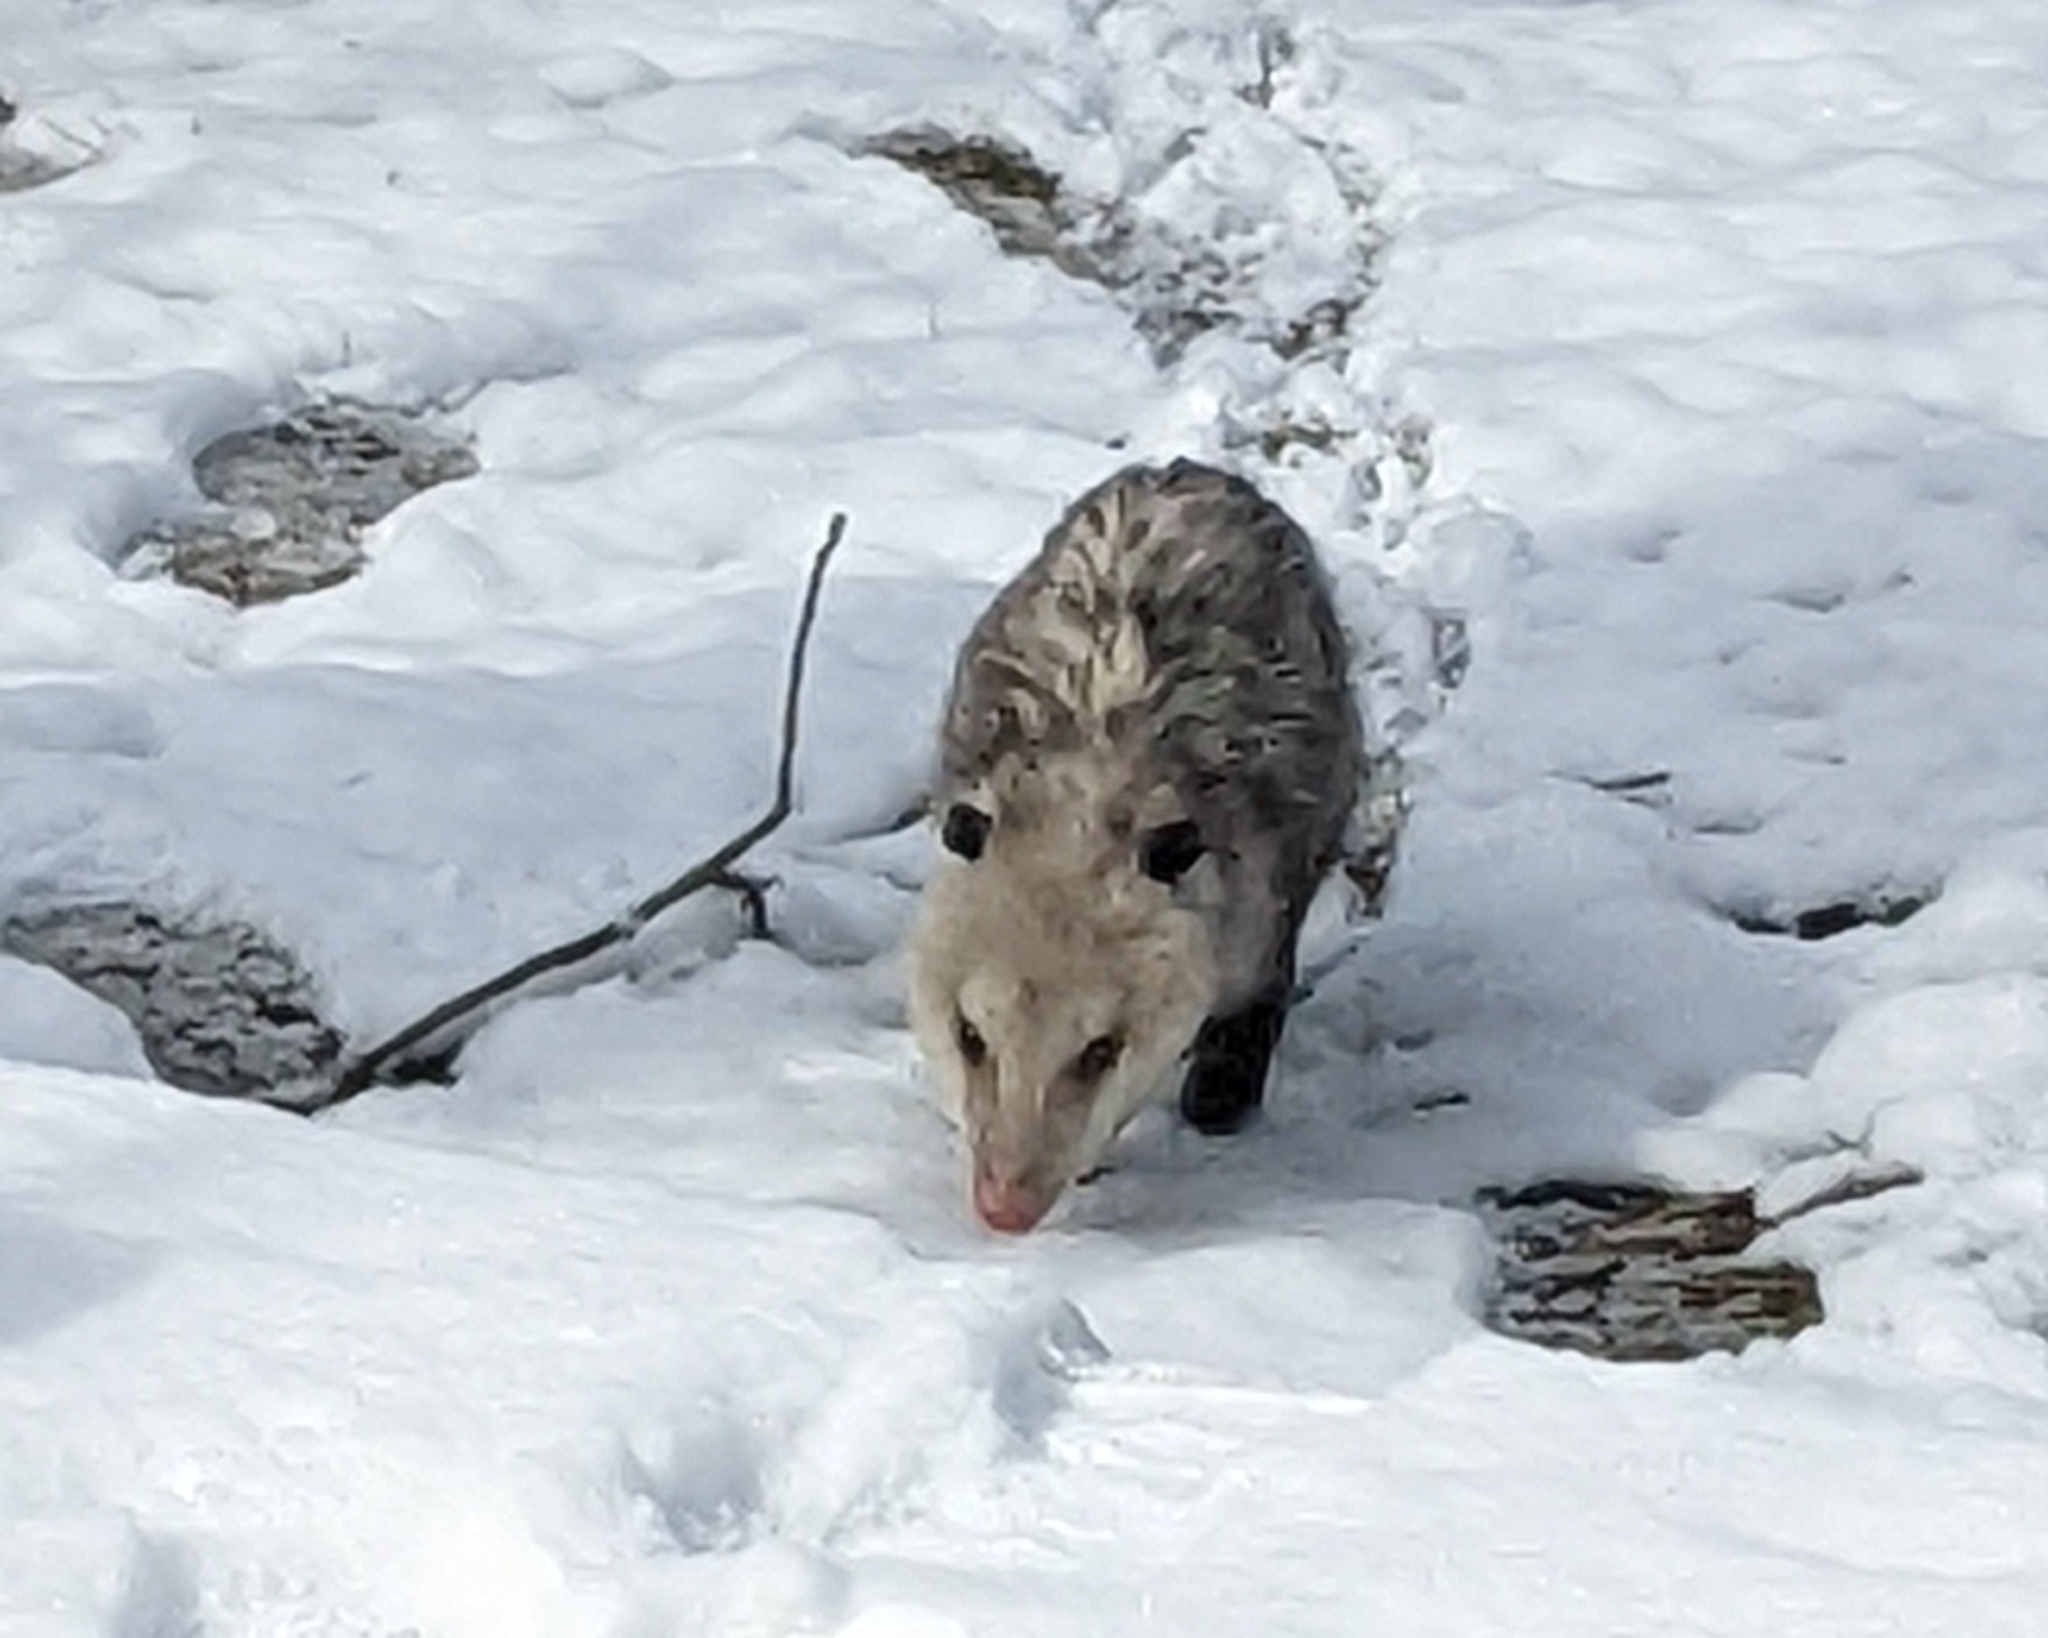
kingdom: Animalia
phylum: Chordata
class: Mammalia
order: Didelphimorphia
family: Didelphidae
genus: Didelphis
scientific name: Didelphis virginiana
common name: Virginia opossum
